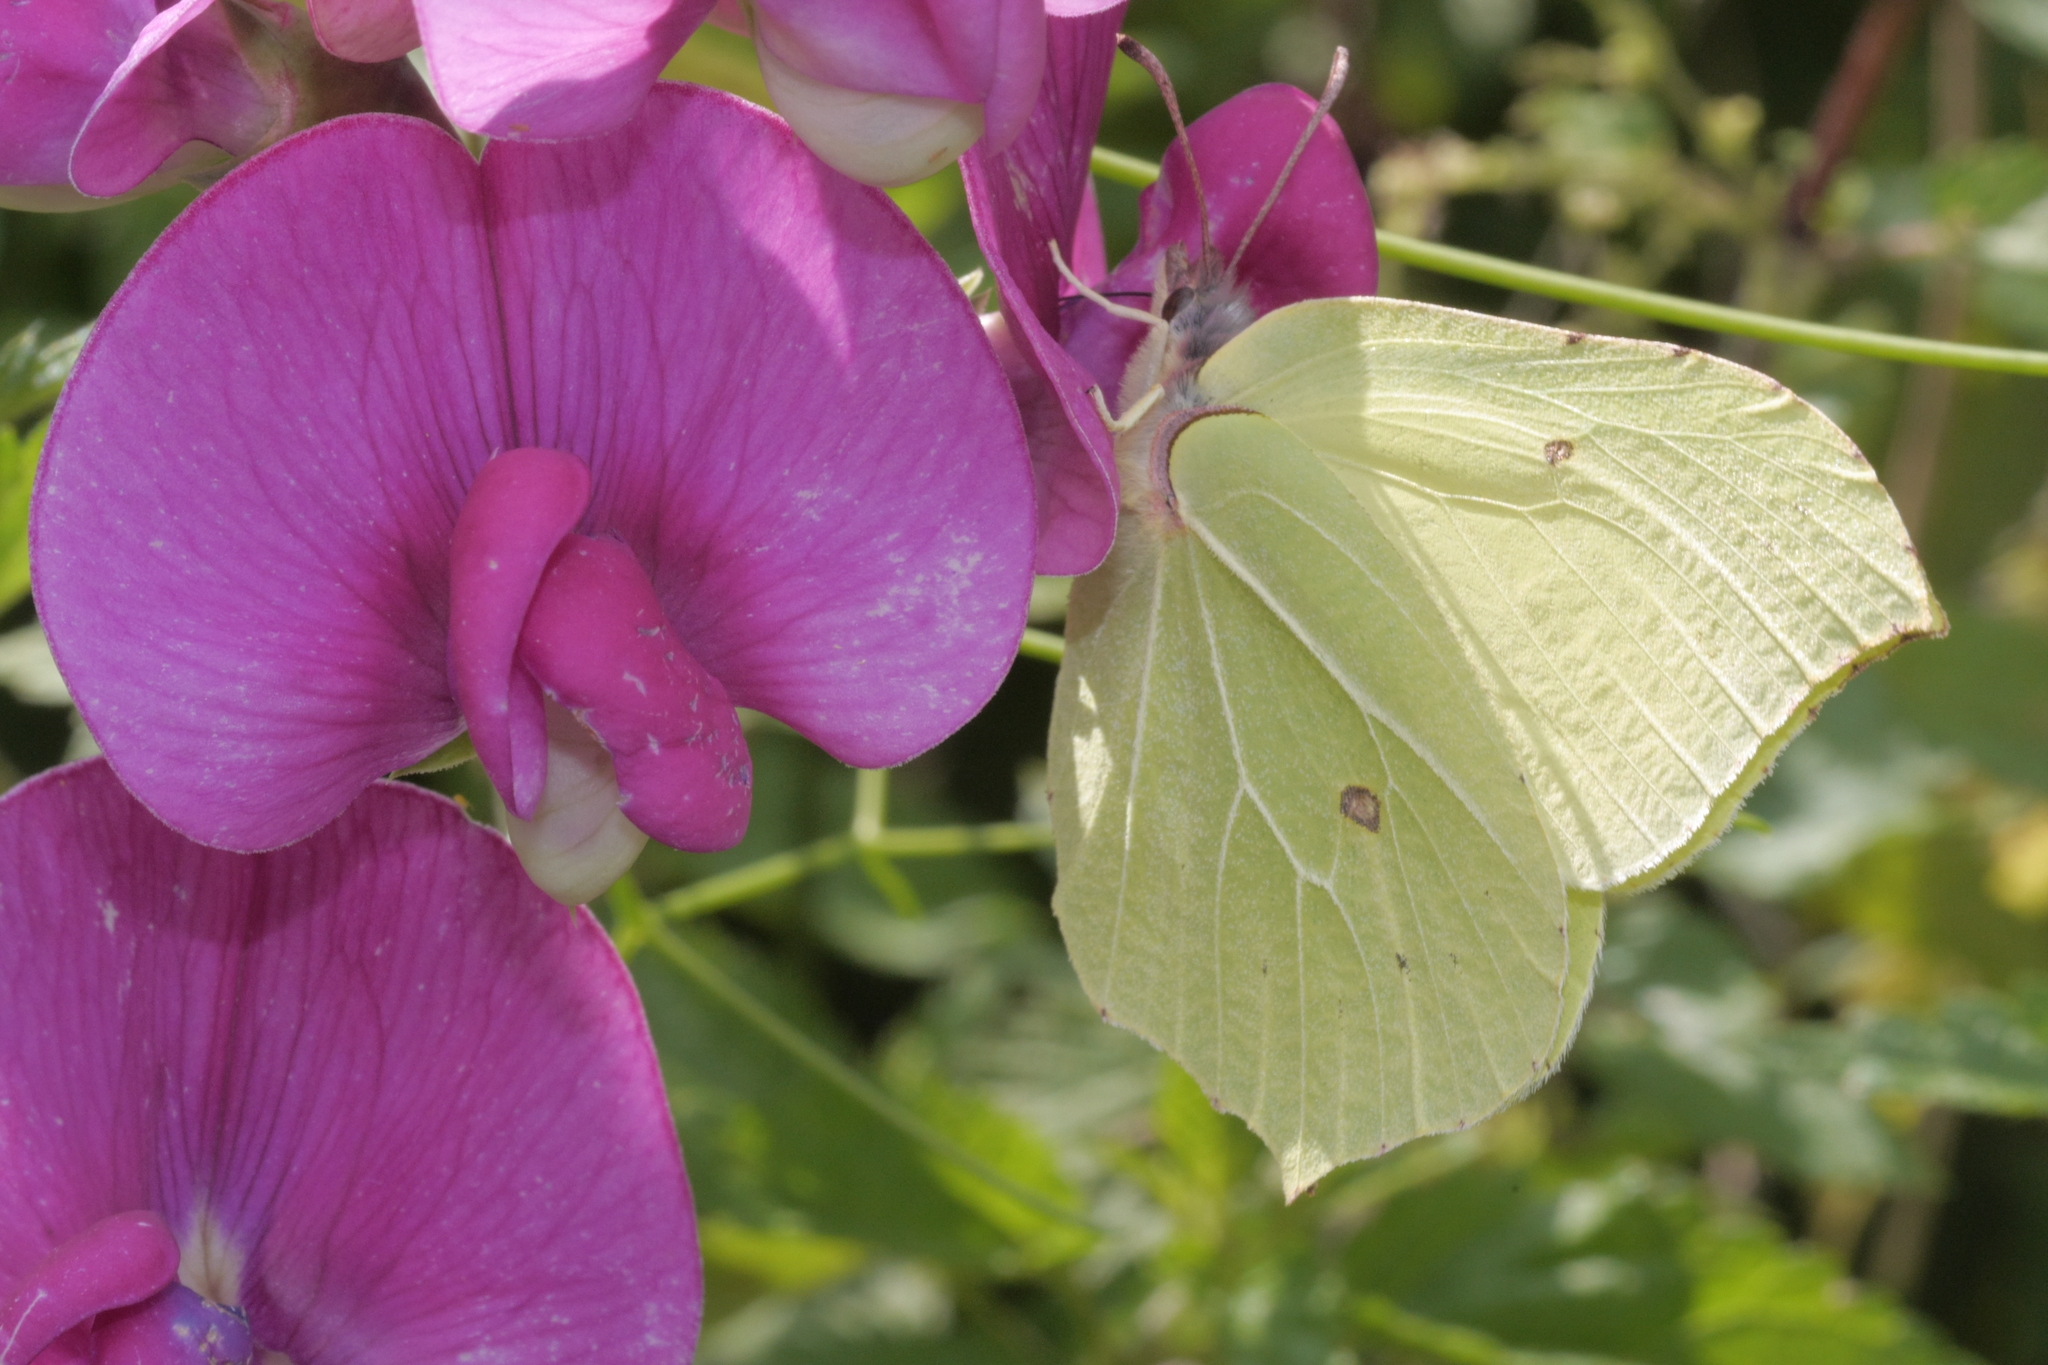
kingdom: Animalia
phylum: Arthropoda
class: Insecta
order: Lepidoptera
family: Pieridae
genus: Gonepteryx
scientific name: Gonepteryx rhamni
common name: Brimstone
